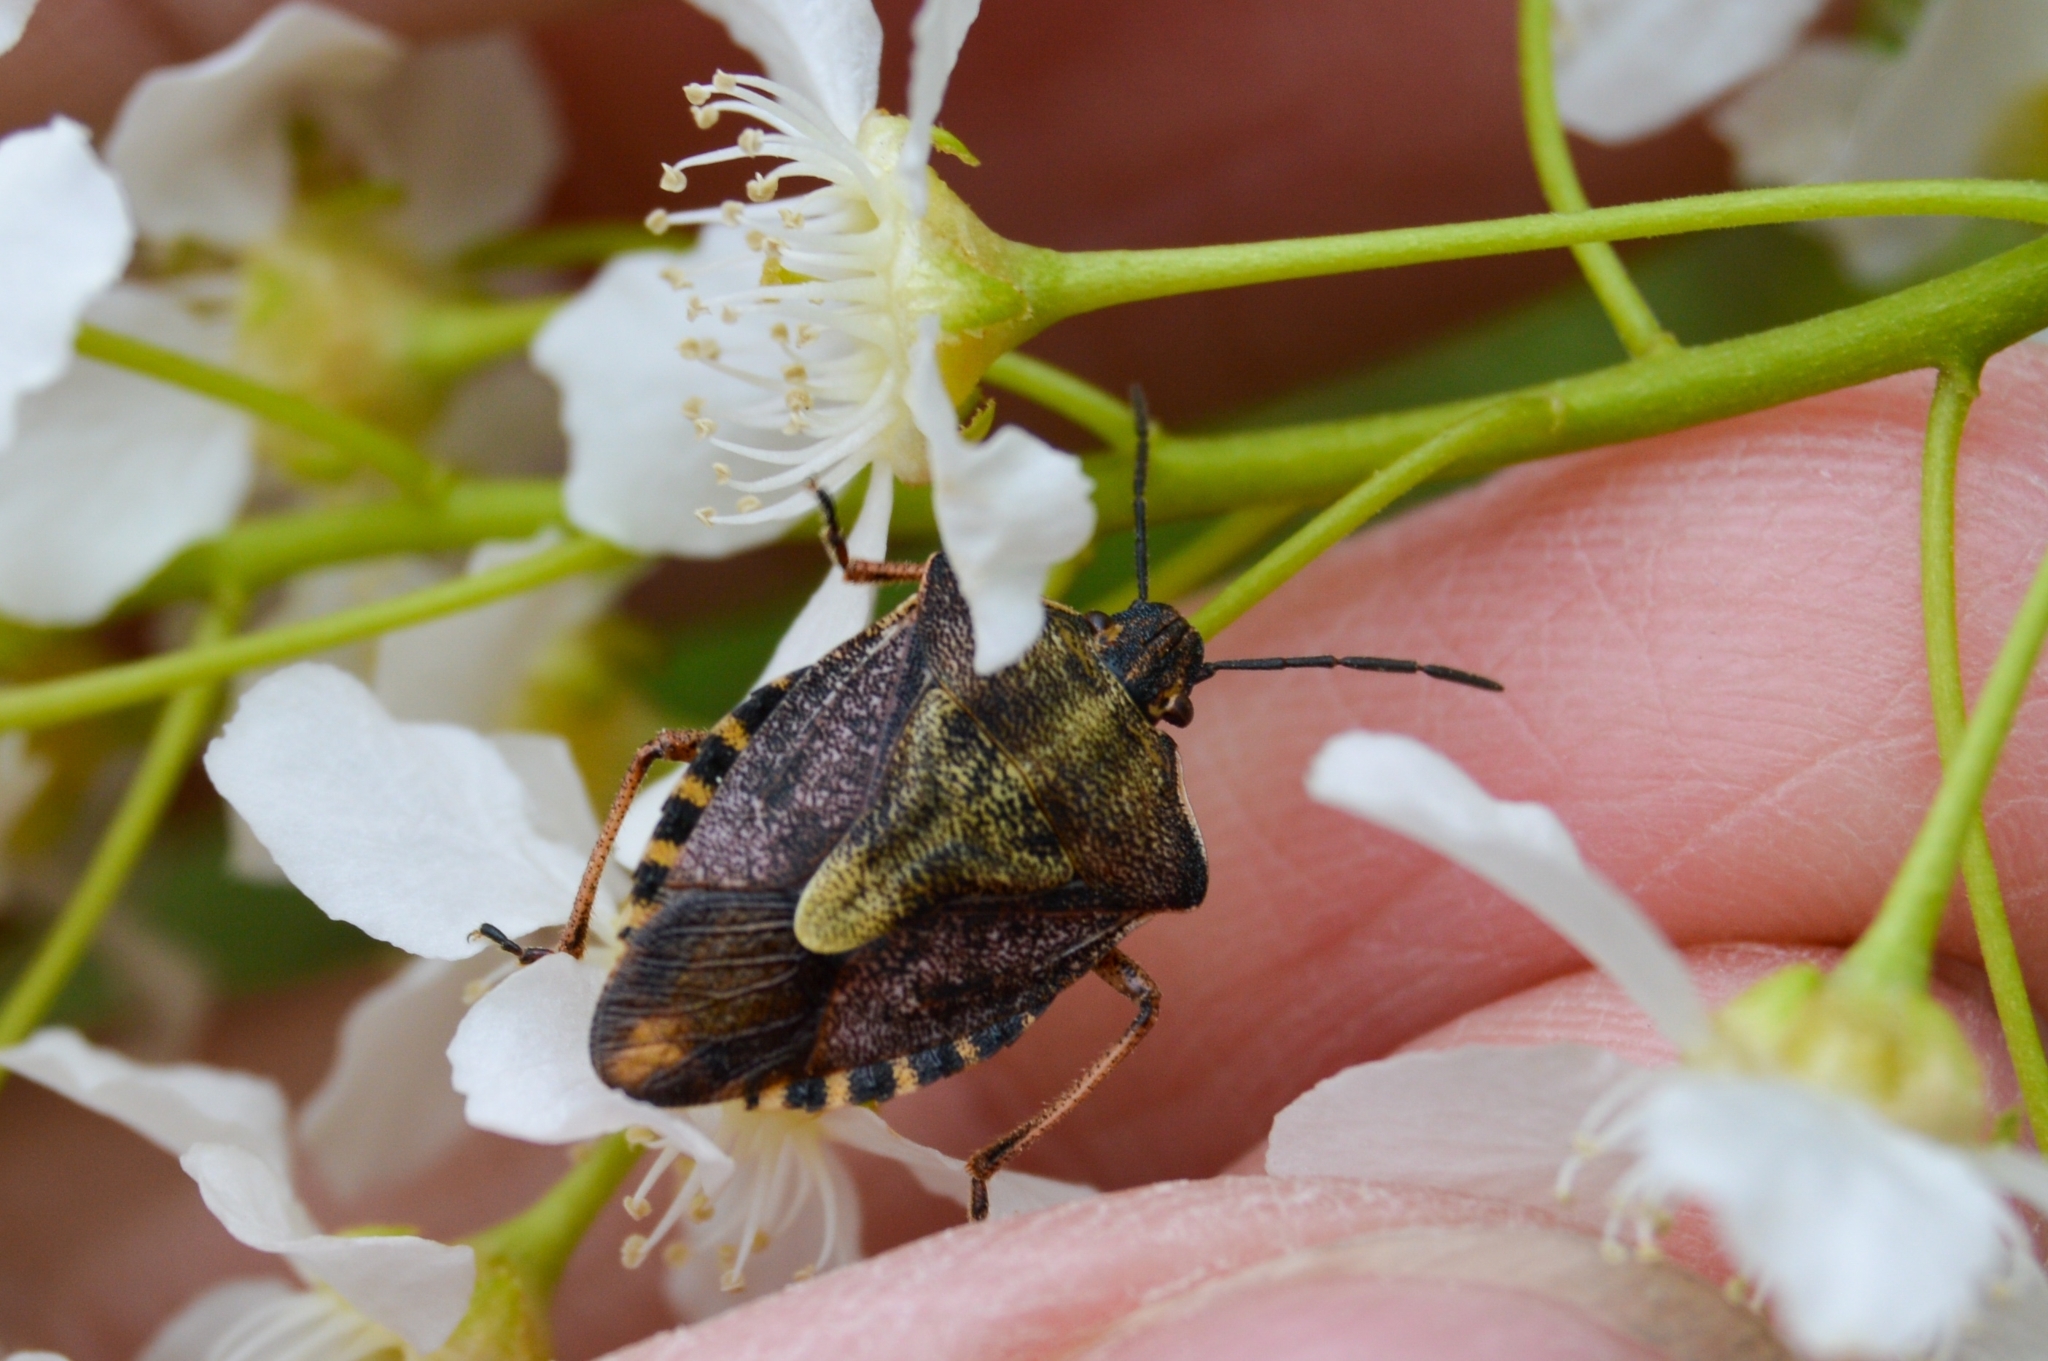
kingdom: Animalia
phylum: Arthropoda
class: Insecta
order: Hemiptera
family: Pentatomidae
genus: Carpocoris
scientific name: Carpocoris purpureipennis
